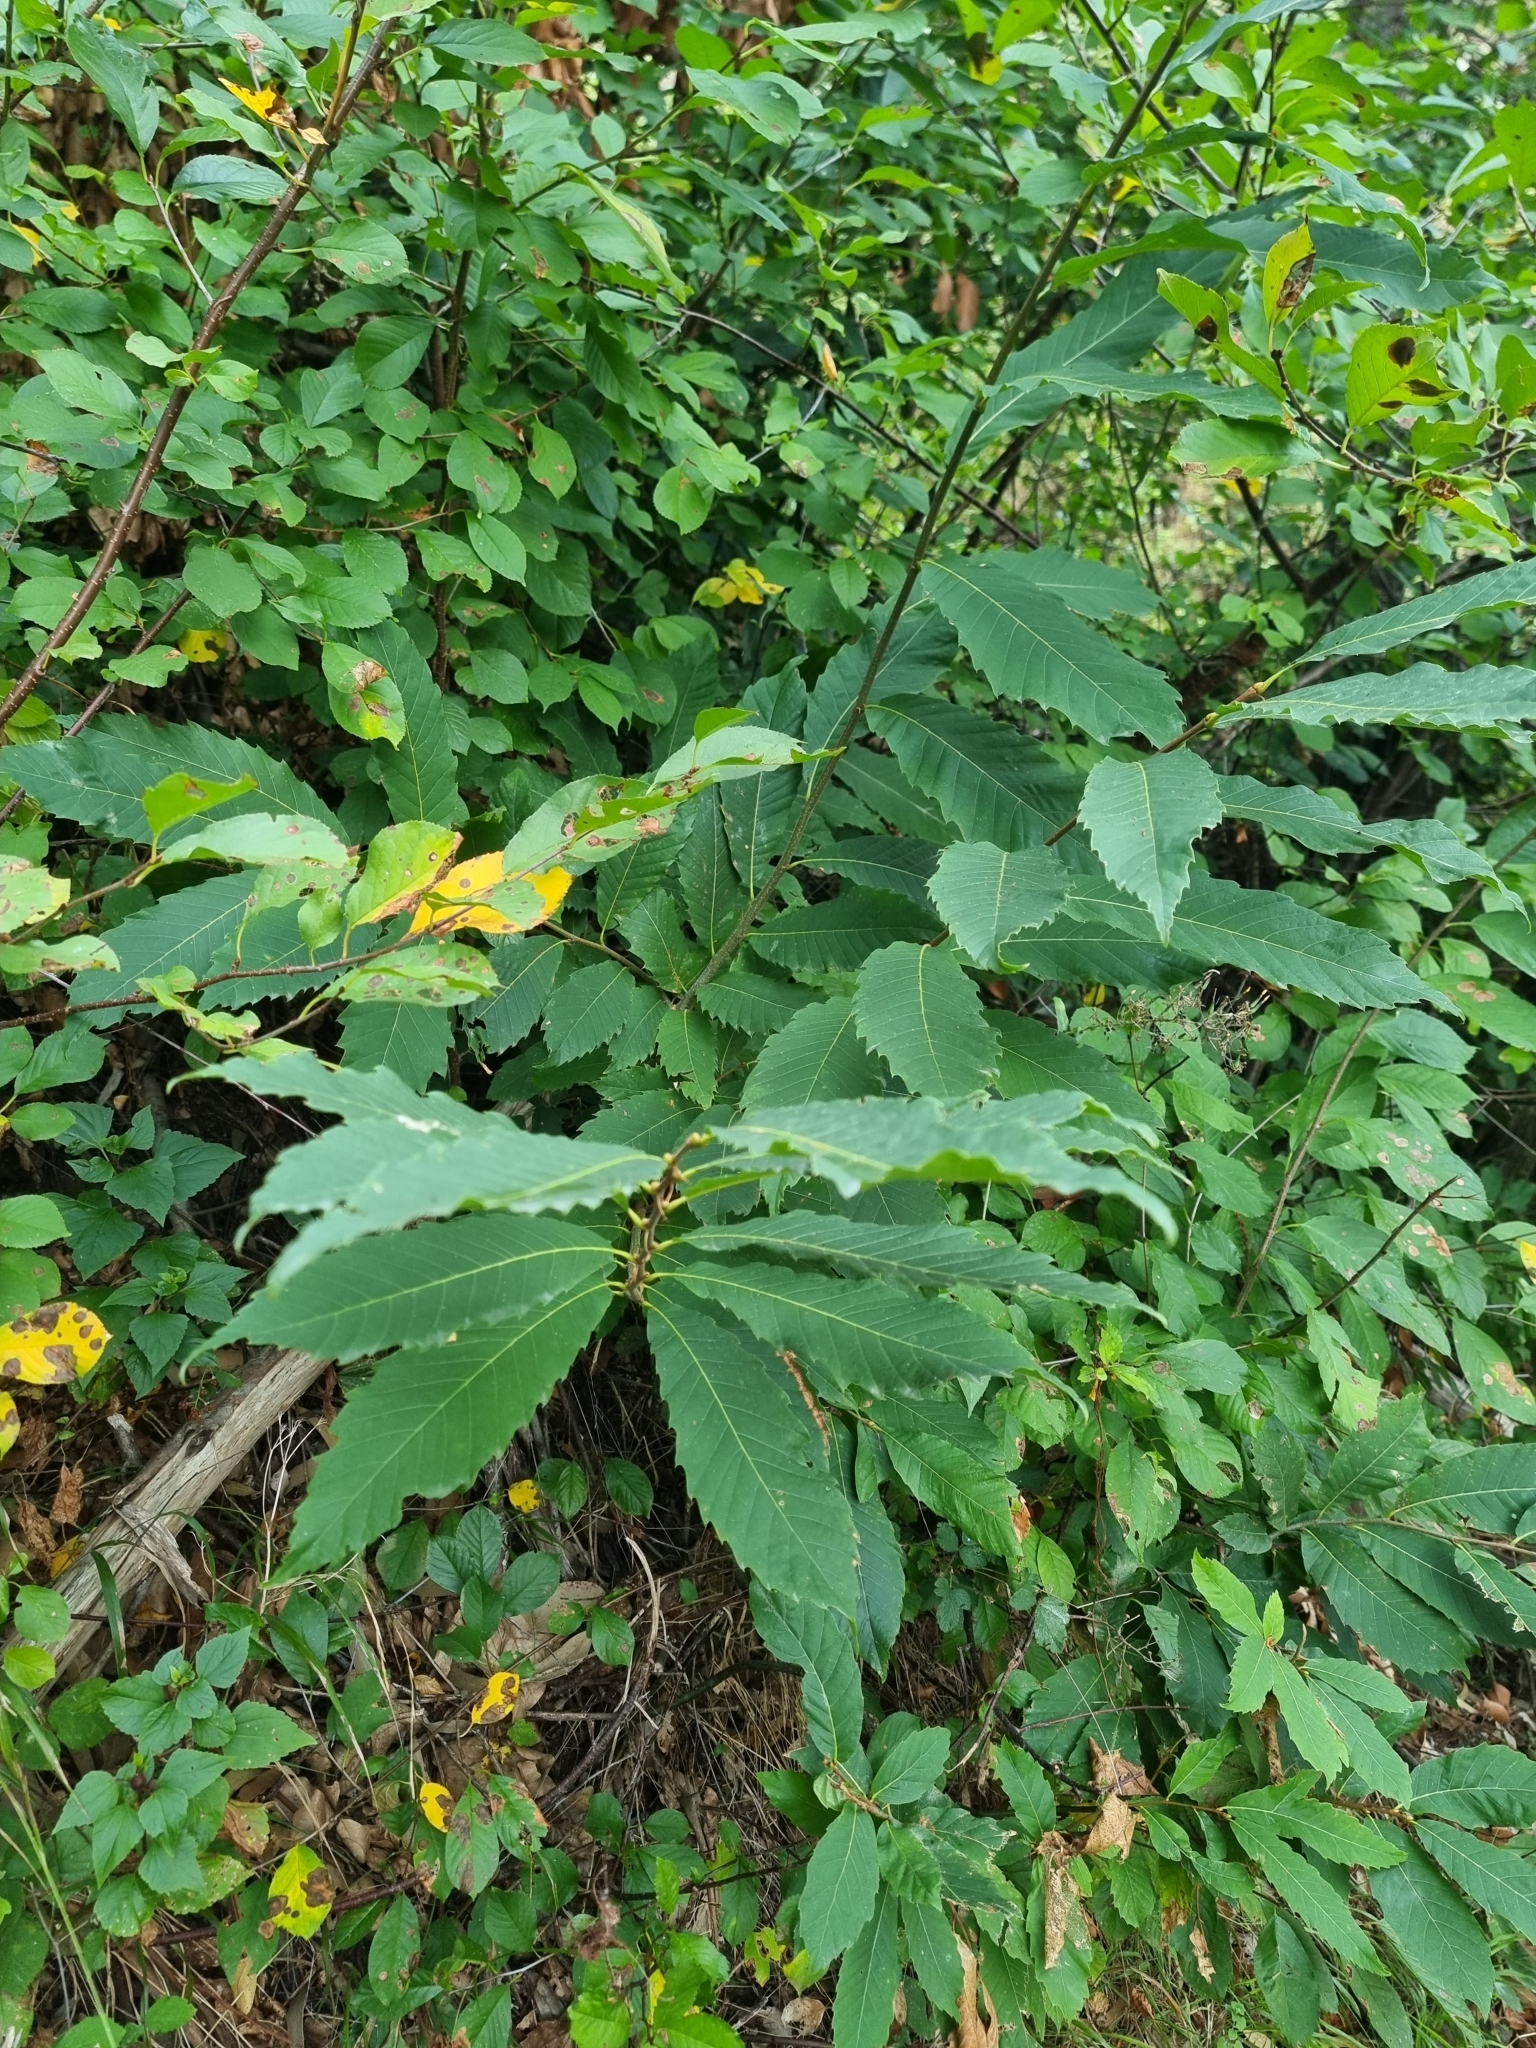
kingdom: Plantae
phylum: Tracheophyta
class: Magnoliopsida
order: Fagales
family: Fagaceae
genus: Castanea
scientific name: Castanea sativa
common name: Sweet chestnut
